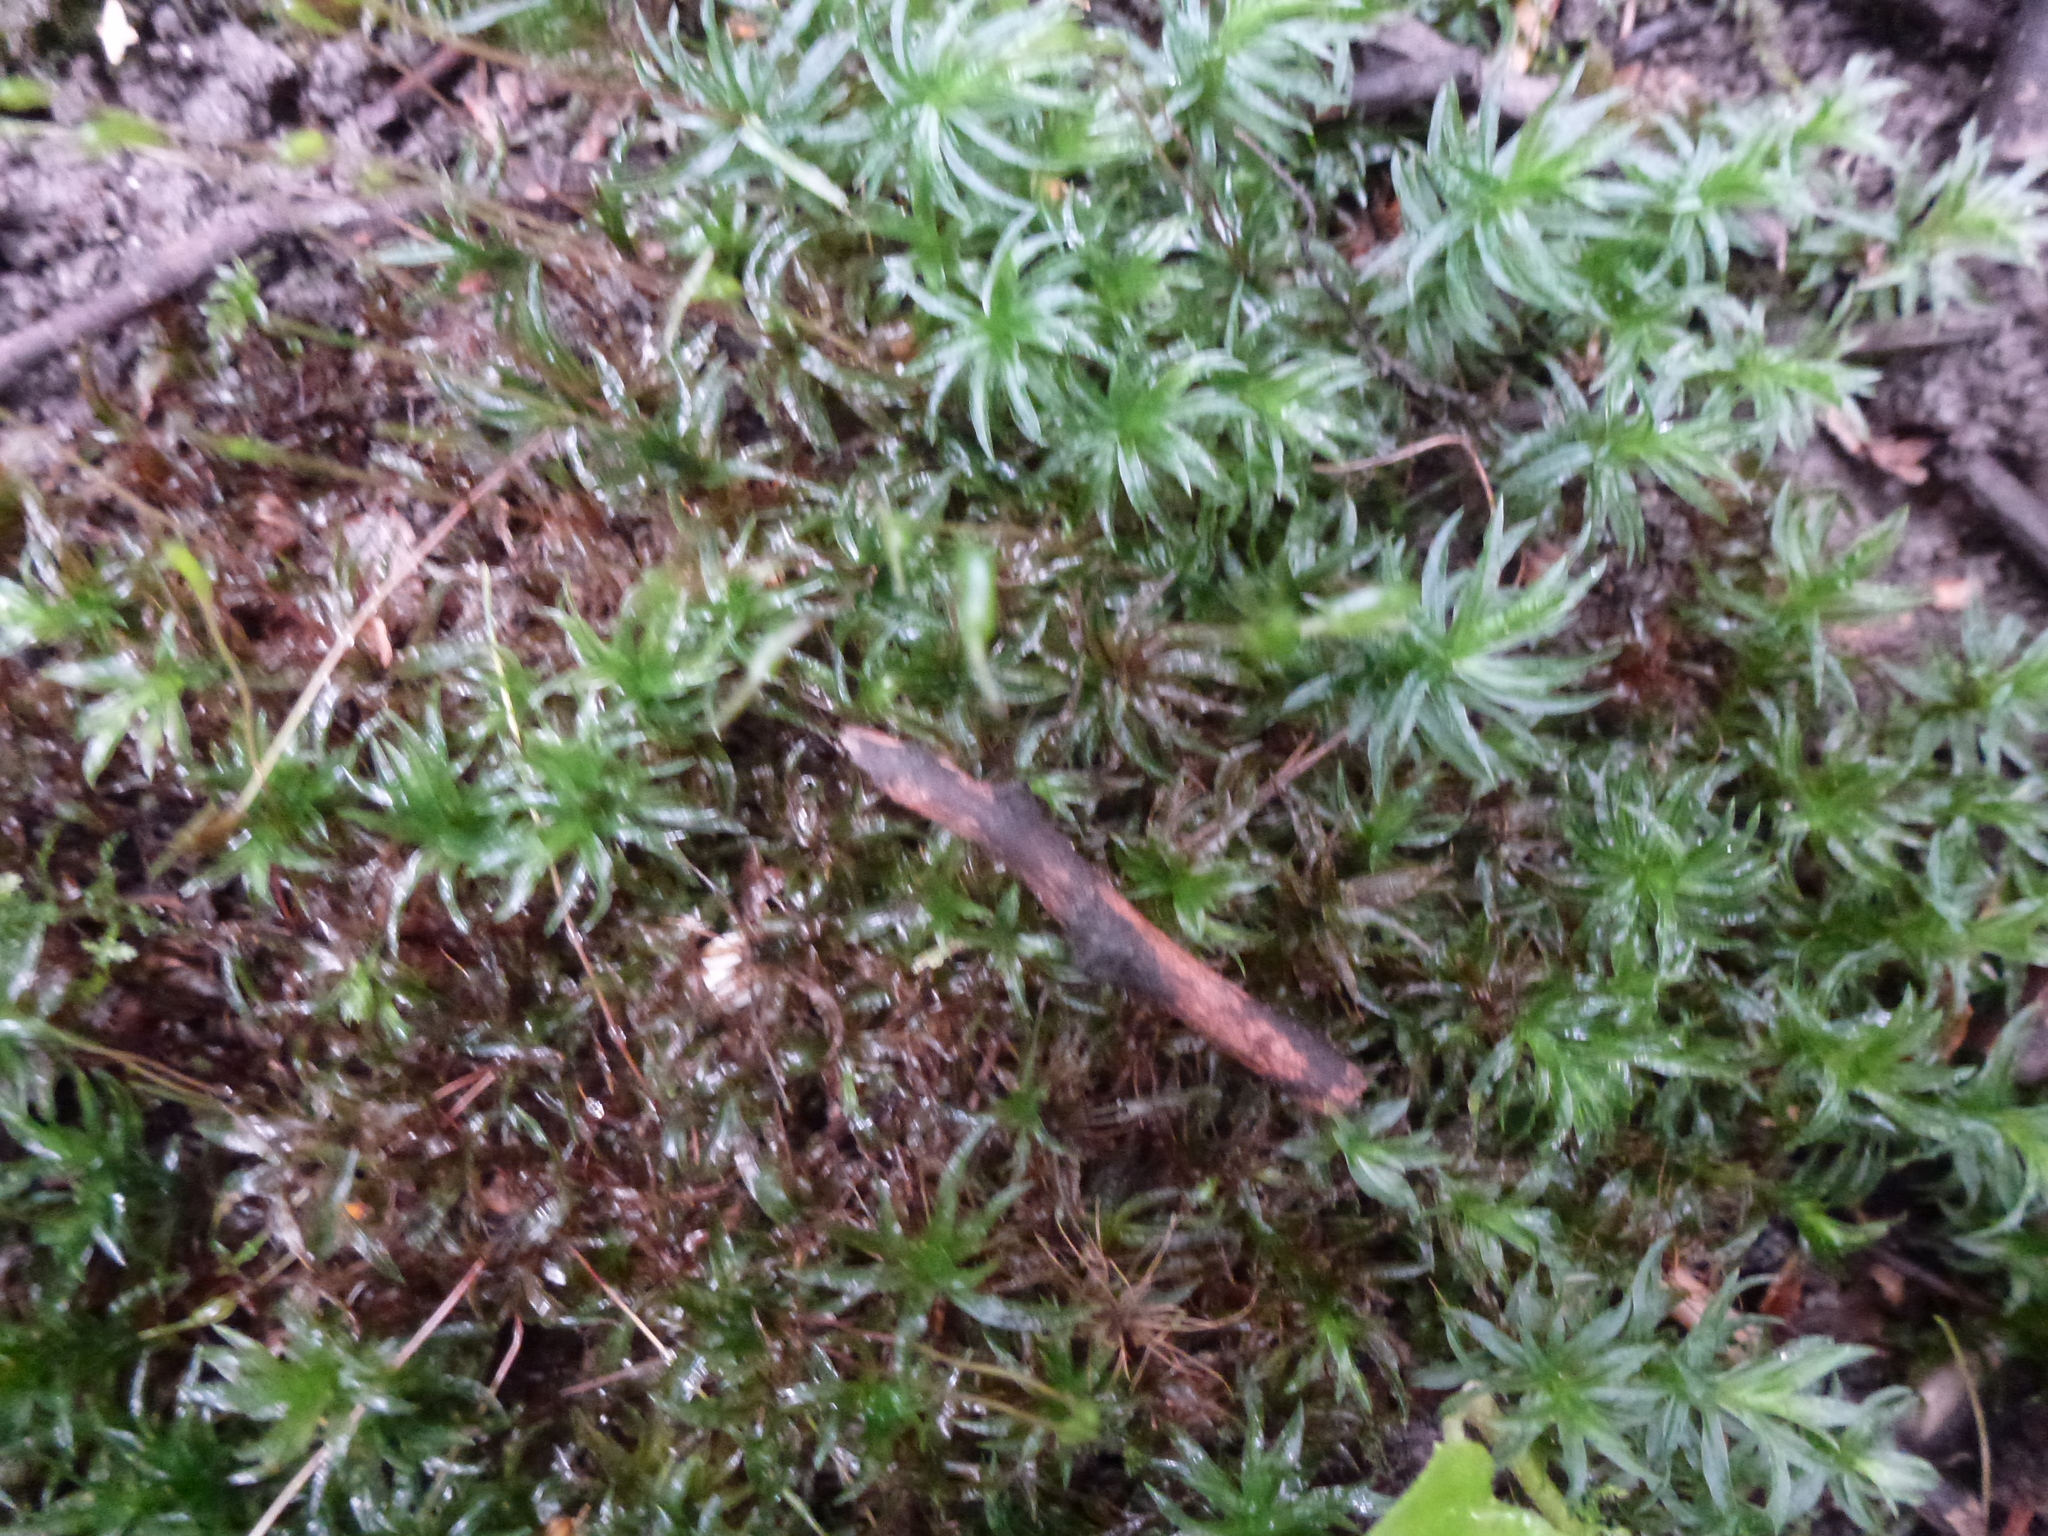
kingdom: Plantae
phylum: Bryophyta
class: Polytrichopsida
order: Polytrichales
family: Polytrichaceae
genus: Atrichum
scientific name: Atrichum undulatum
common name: Common smoothcap
